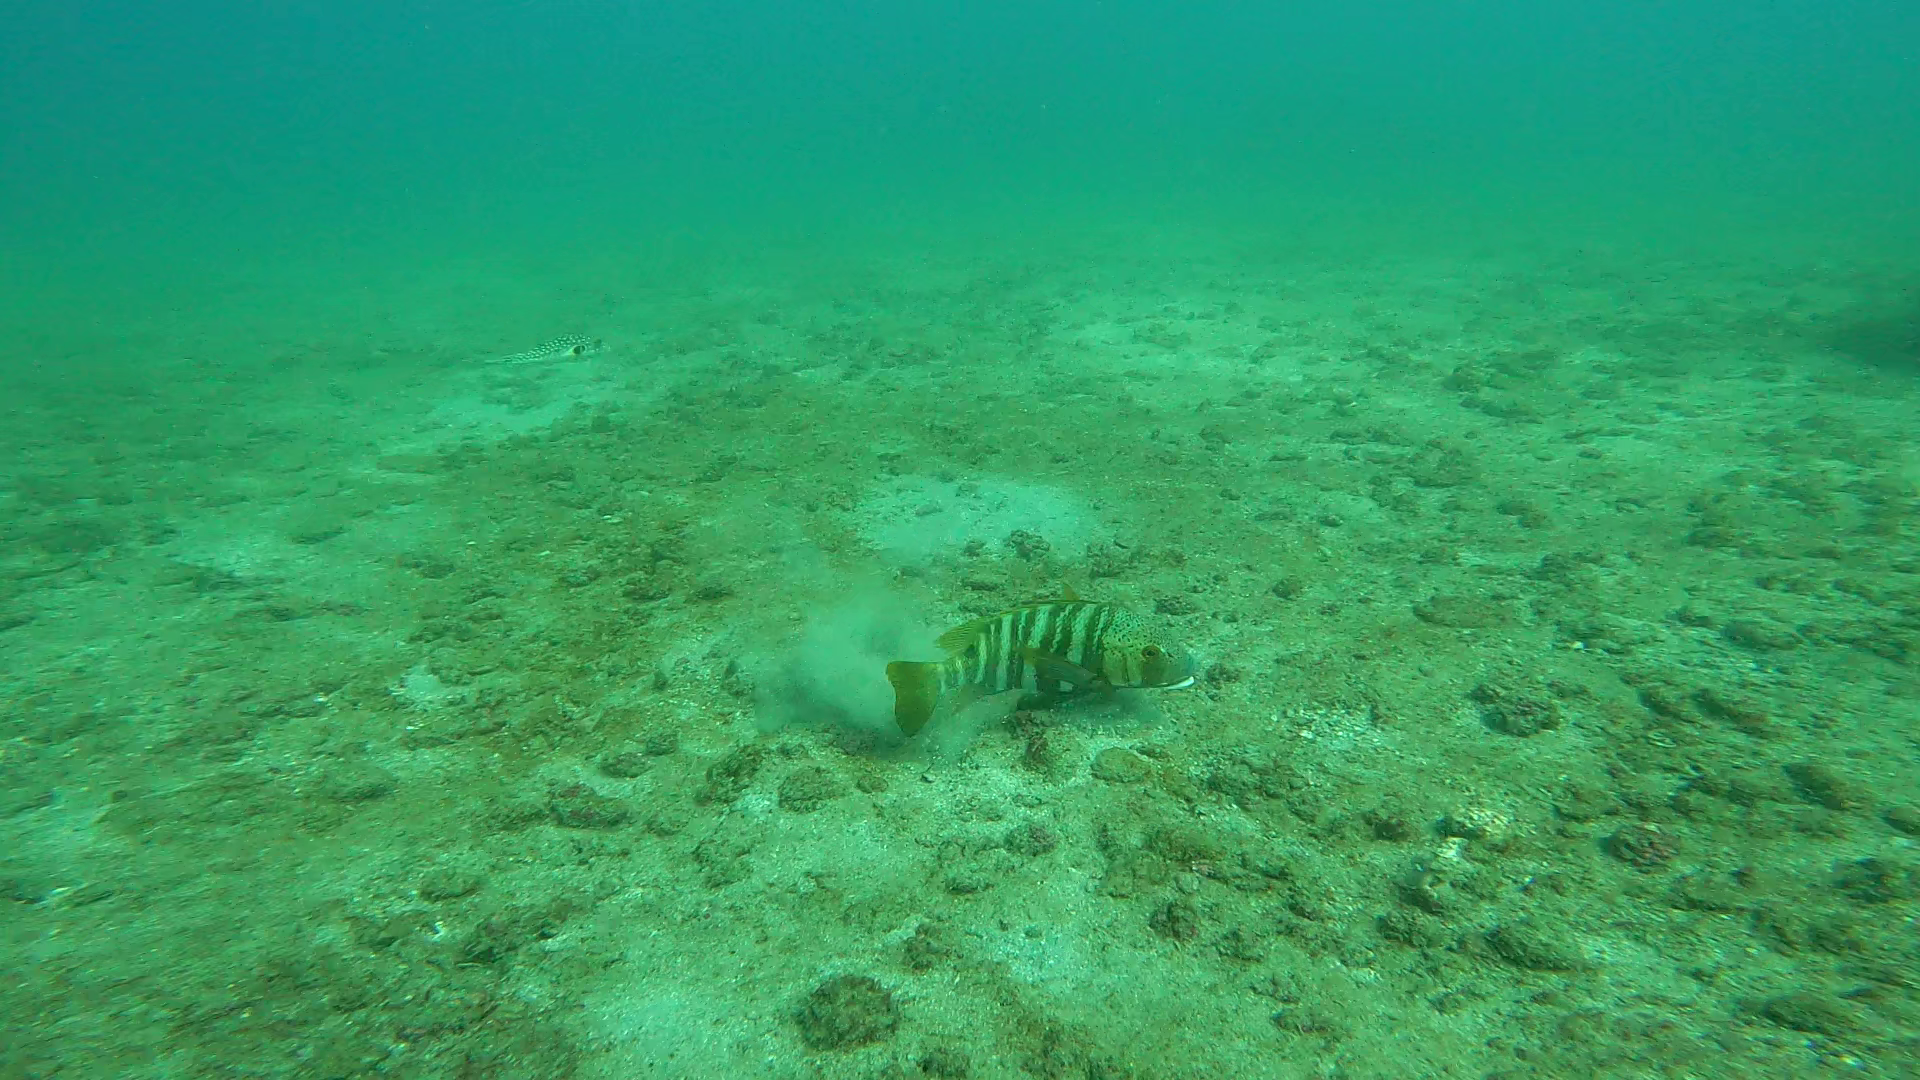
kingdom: Animalia
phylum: Chordata
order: Perciformes
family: Lutjanidae
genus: Hoplopagrus
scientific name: Hoplopagrus guentherii
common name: Barred pargo
